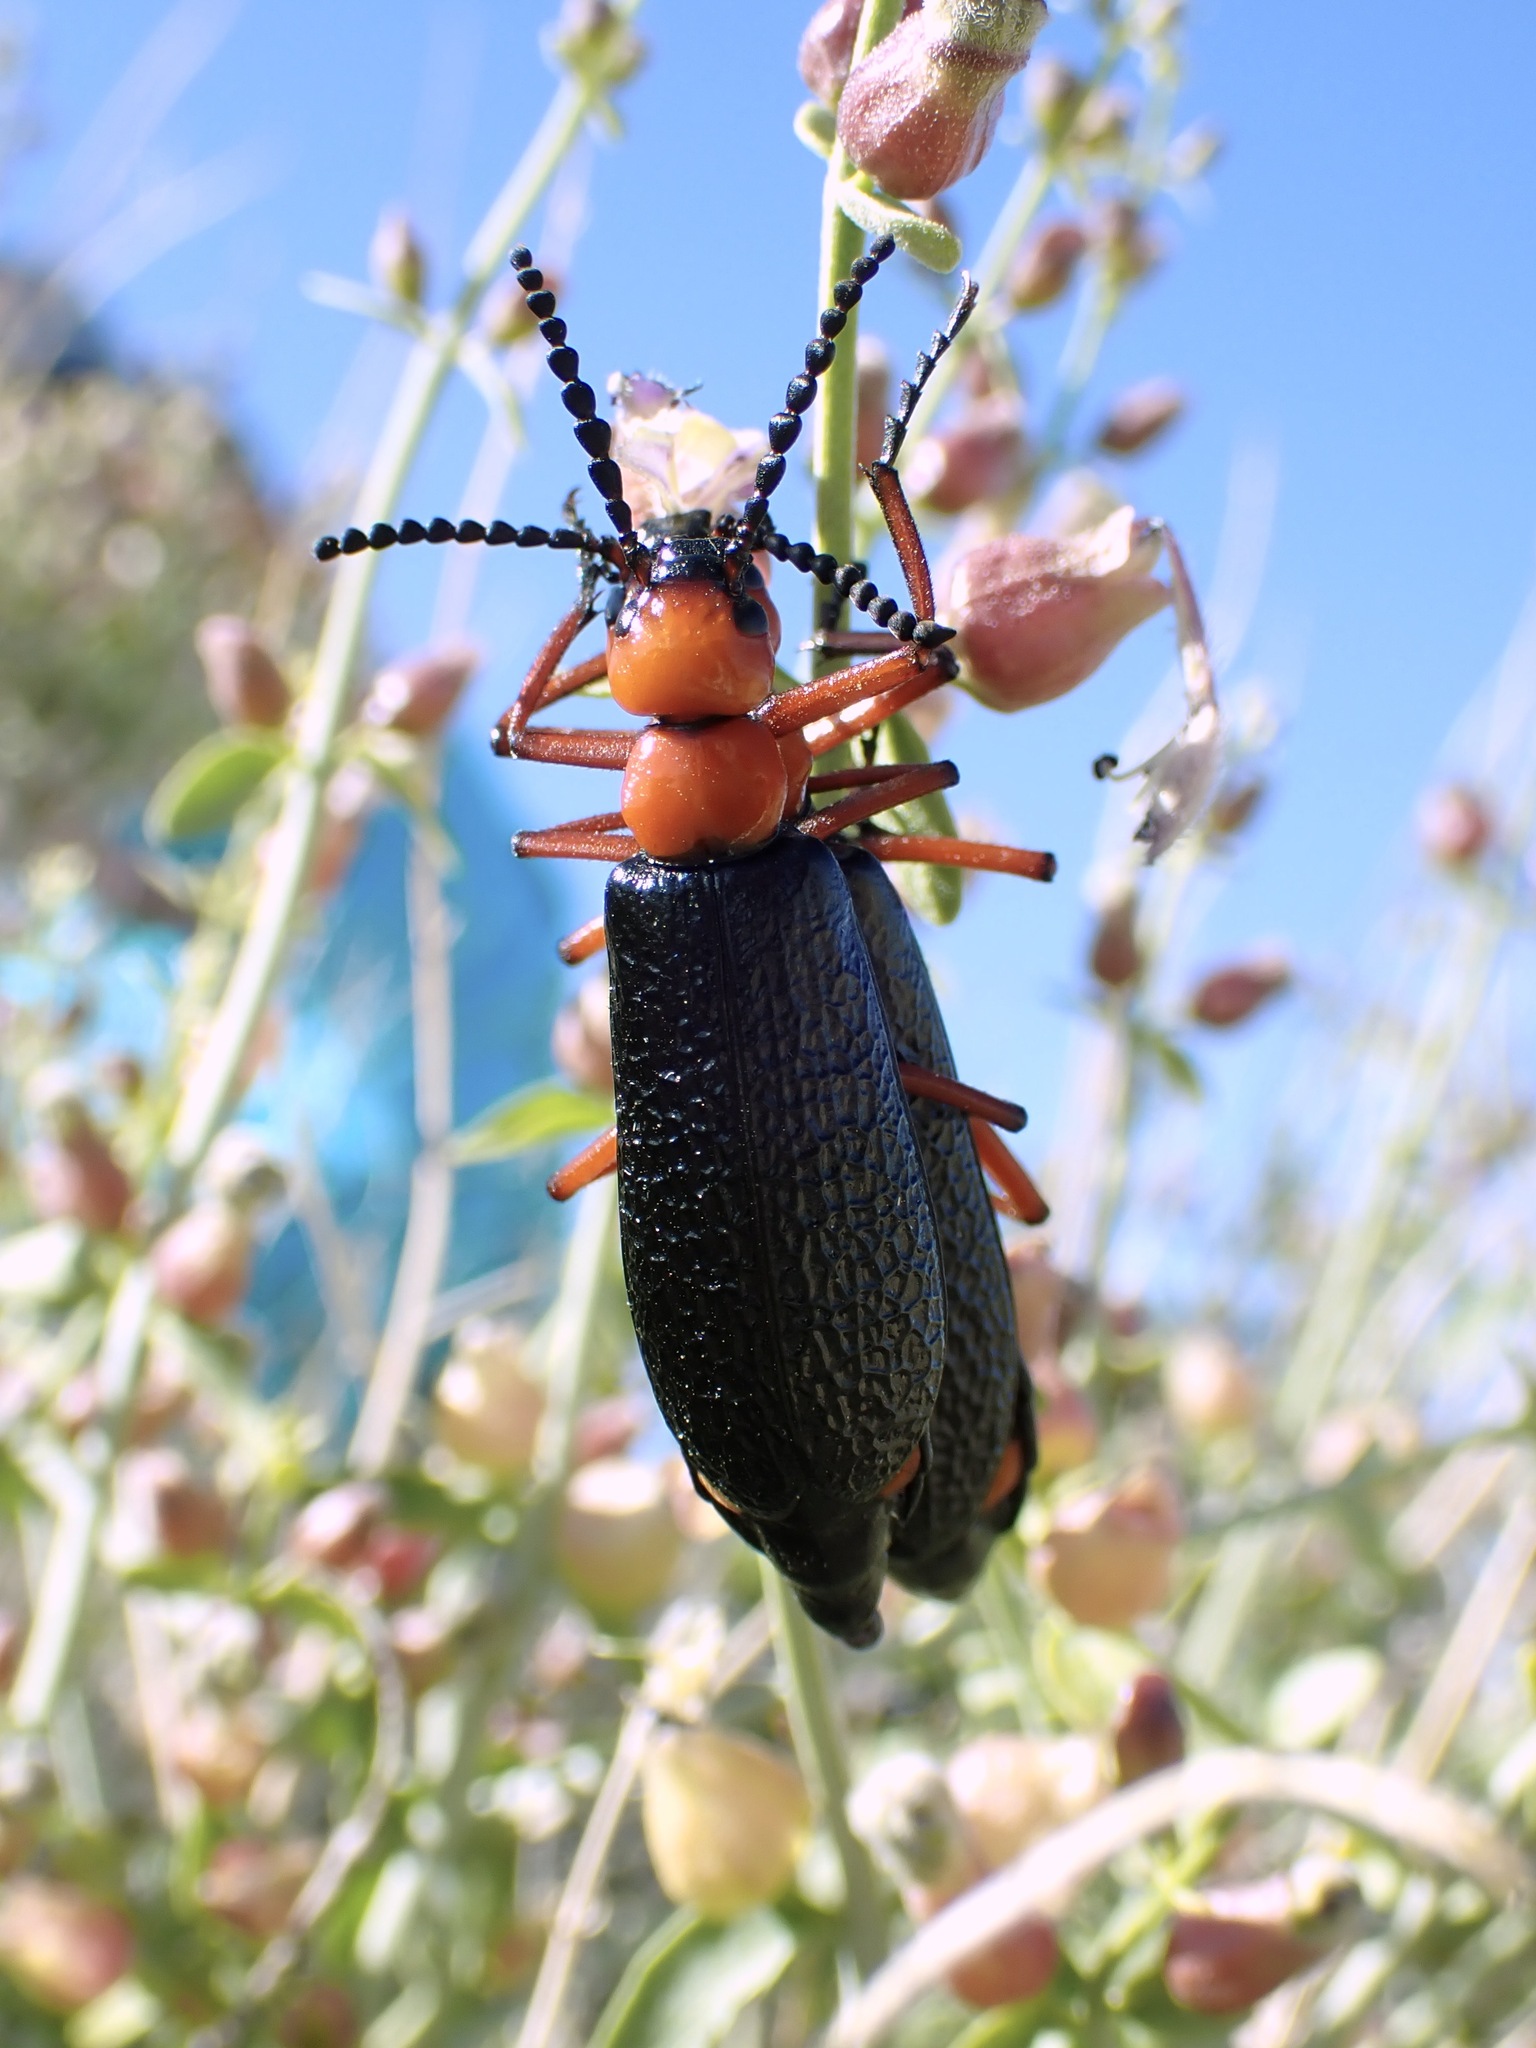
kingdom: Animalia
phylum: Arthropoda
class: Insecta
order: Coleoptera
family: Meloidae
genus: Lytta
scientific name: Lytta magister
